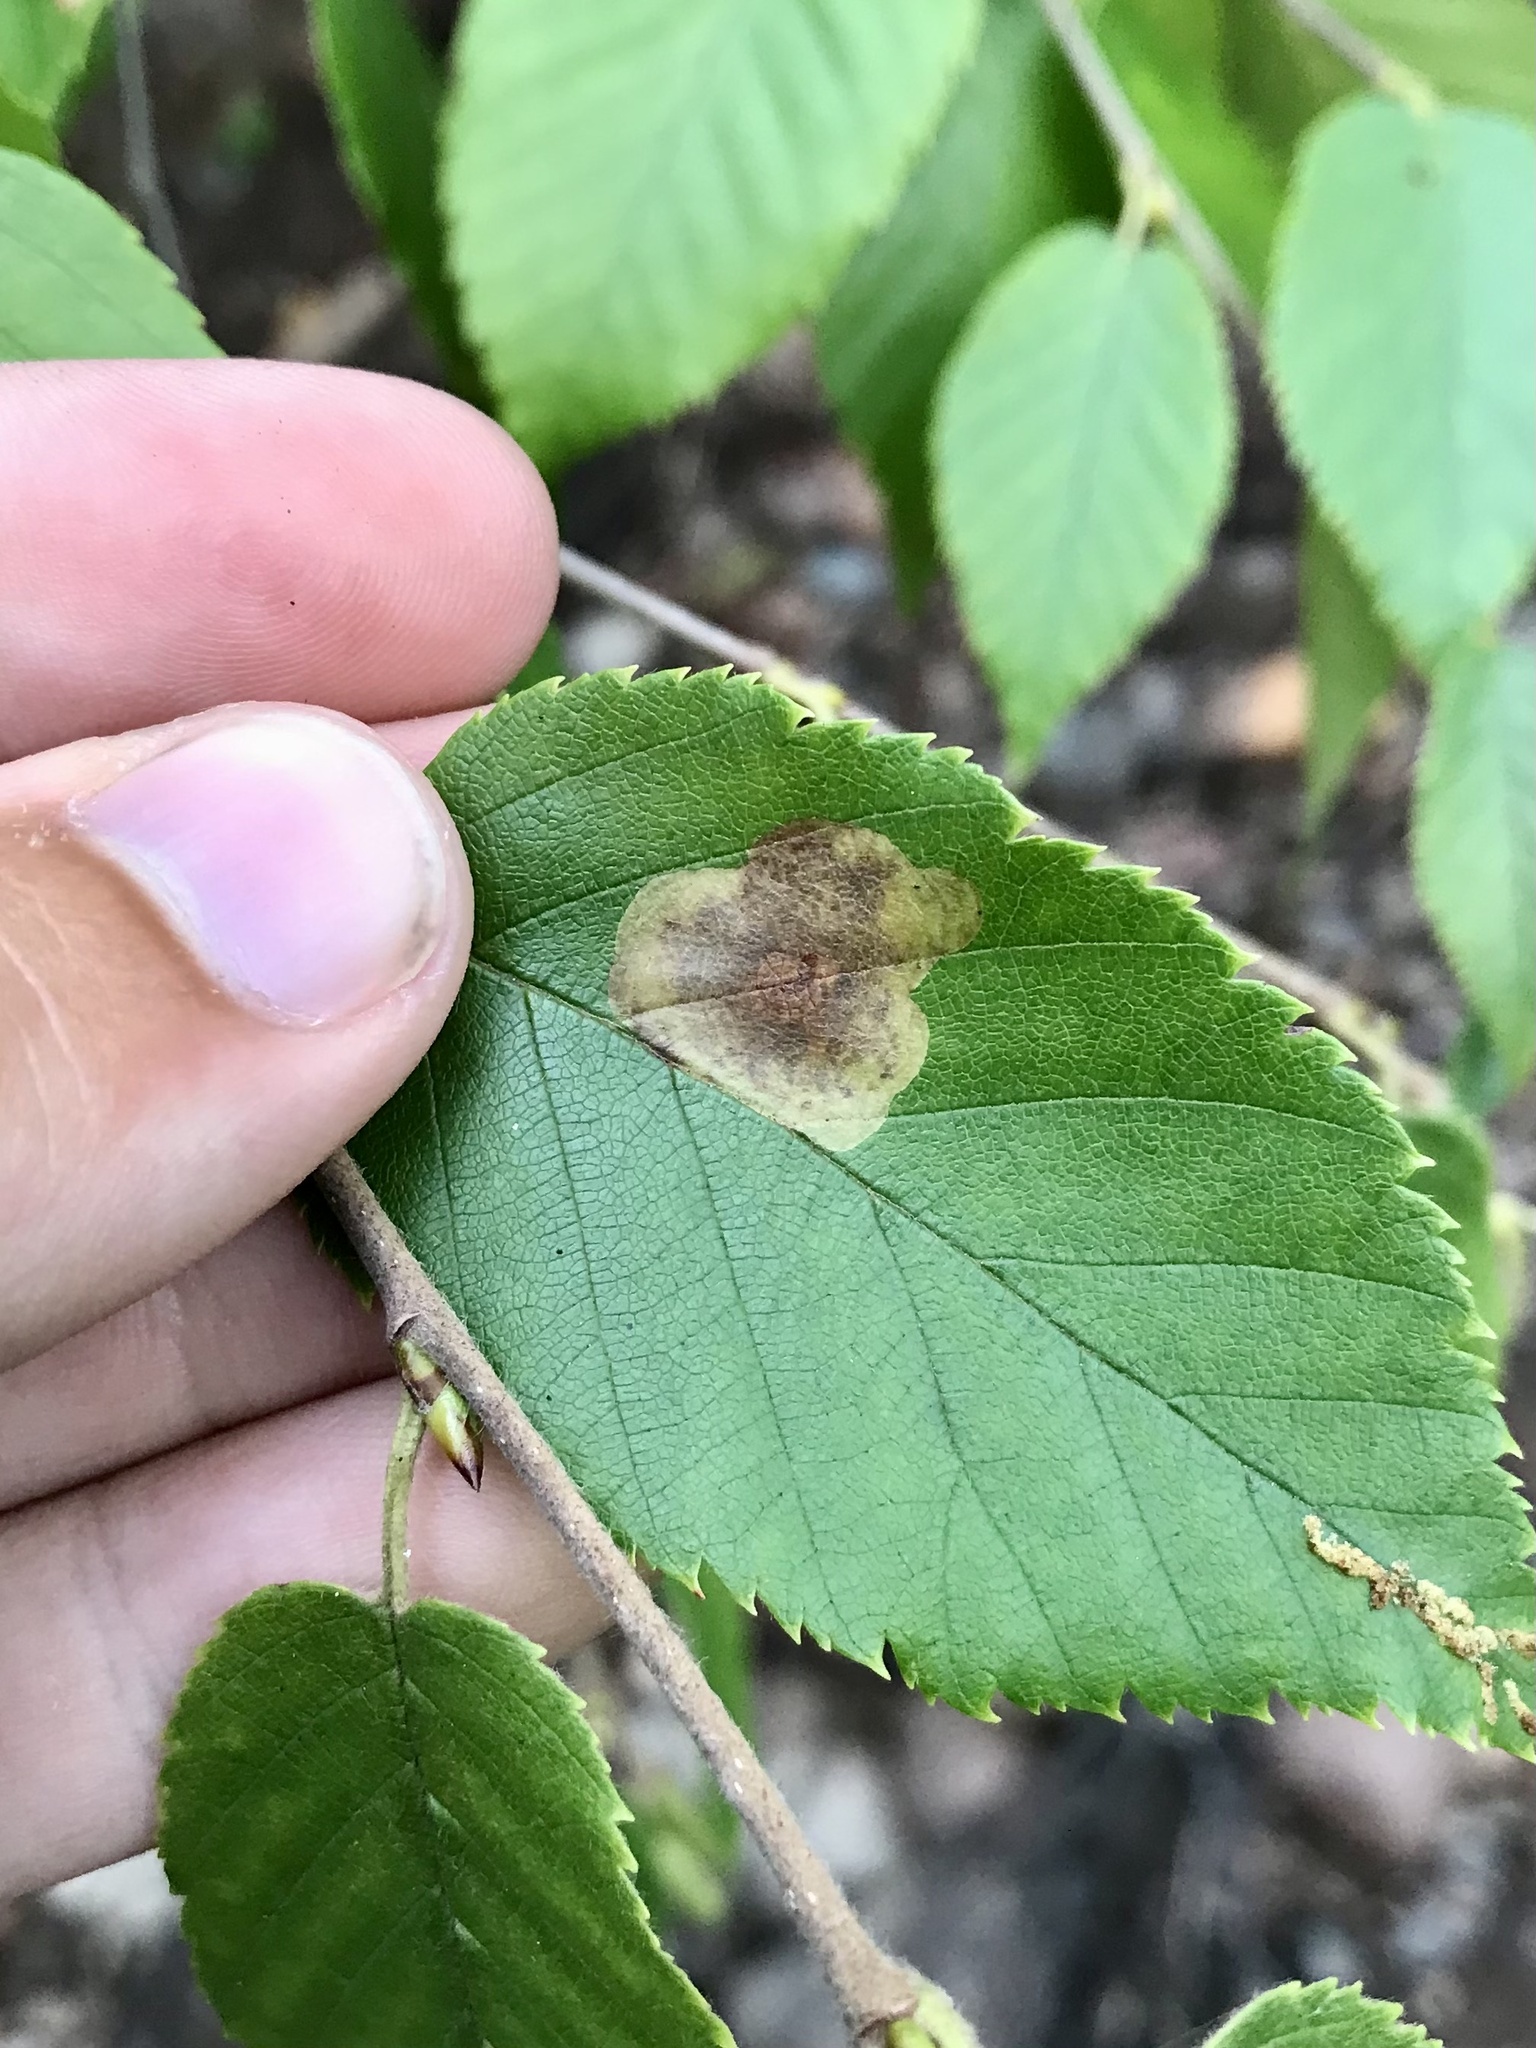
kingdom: Animalia
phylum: Arthropoda
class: Insecta
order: Lepidoptera
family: Gracillariidae
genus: Cameraria
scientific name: Cameraria betulivora
